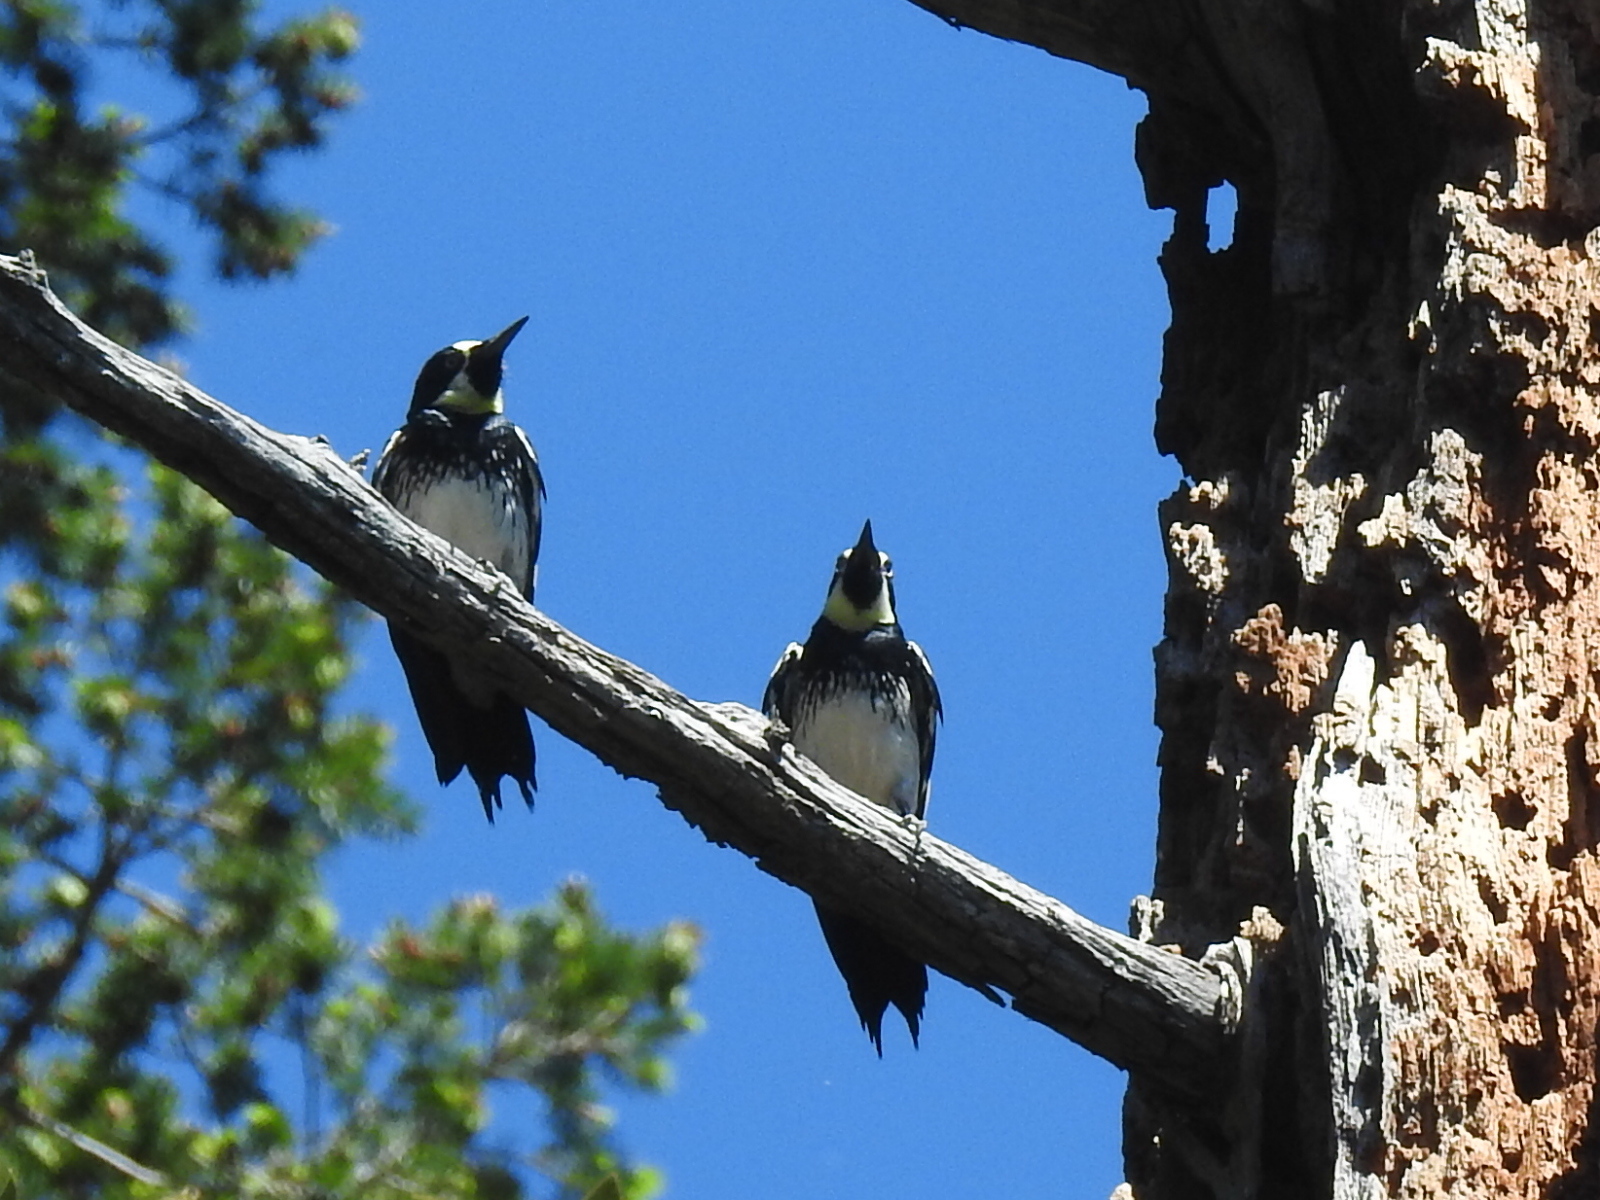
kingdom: Animalia
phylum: Chordata
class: Aves
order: Piciformes
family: Picidae
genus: Melanerpes
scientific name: Melanerpes formicivorus
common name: Acorn woodpecker
